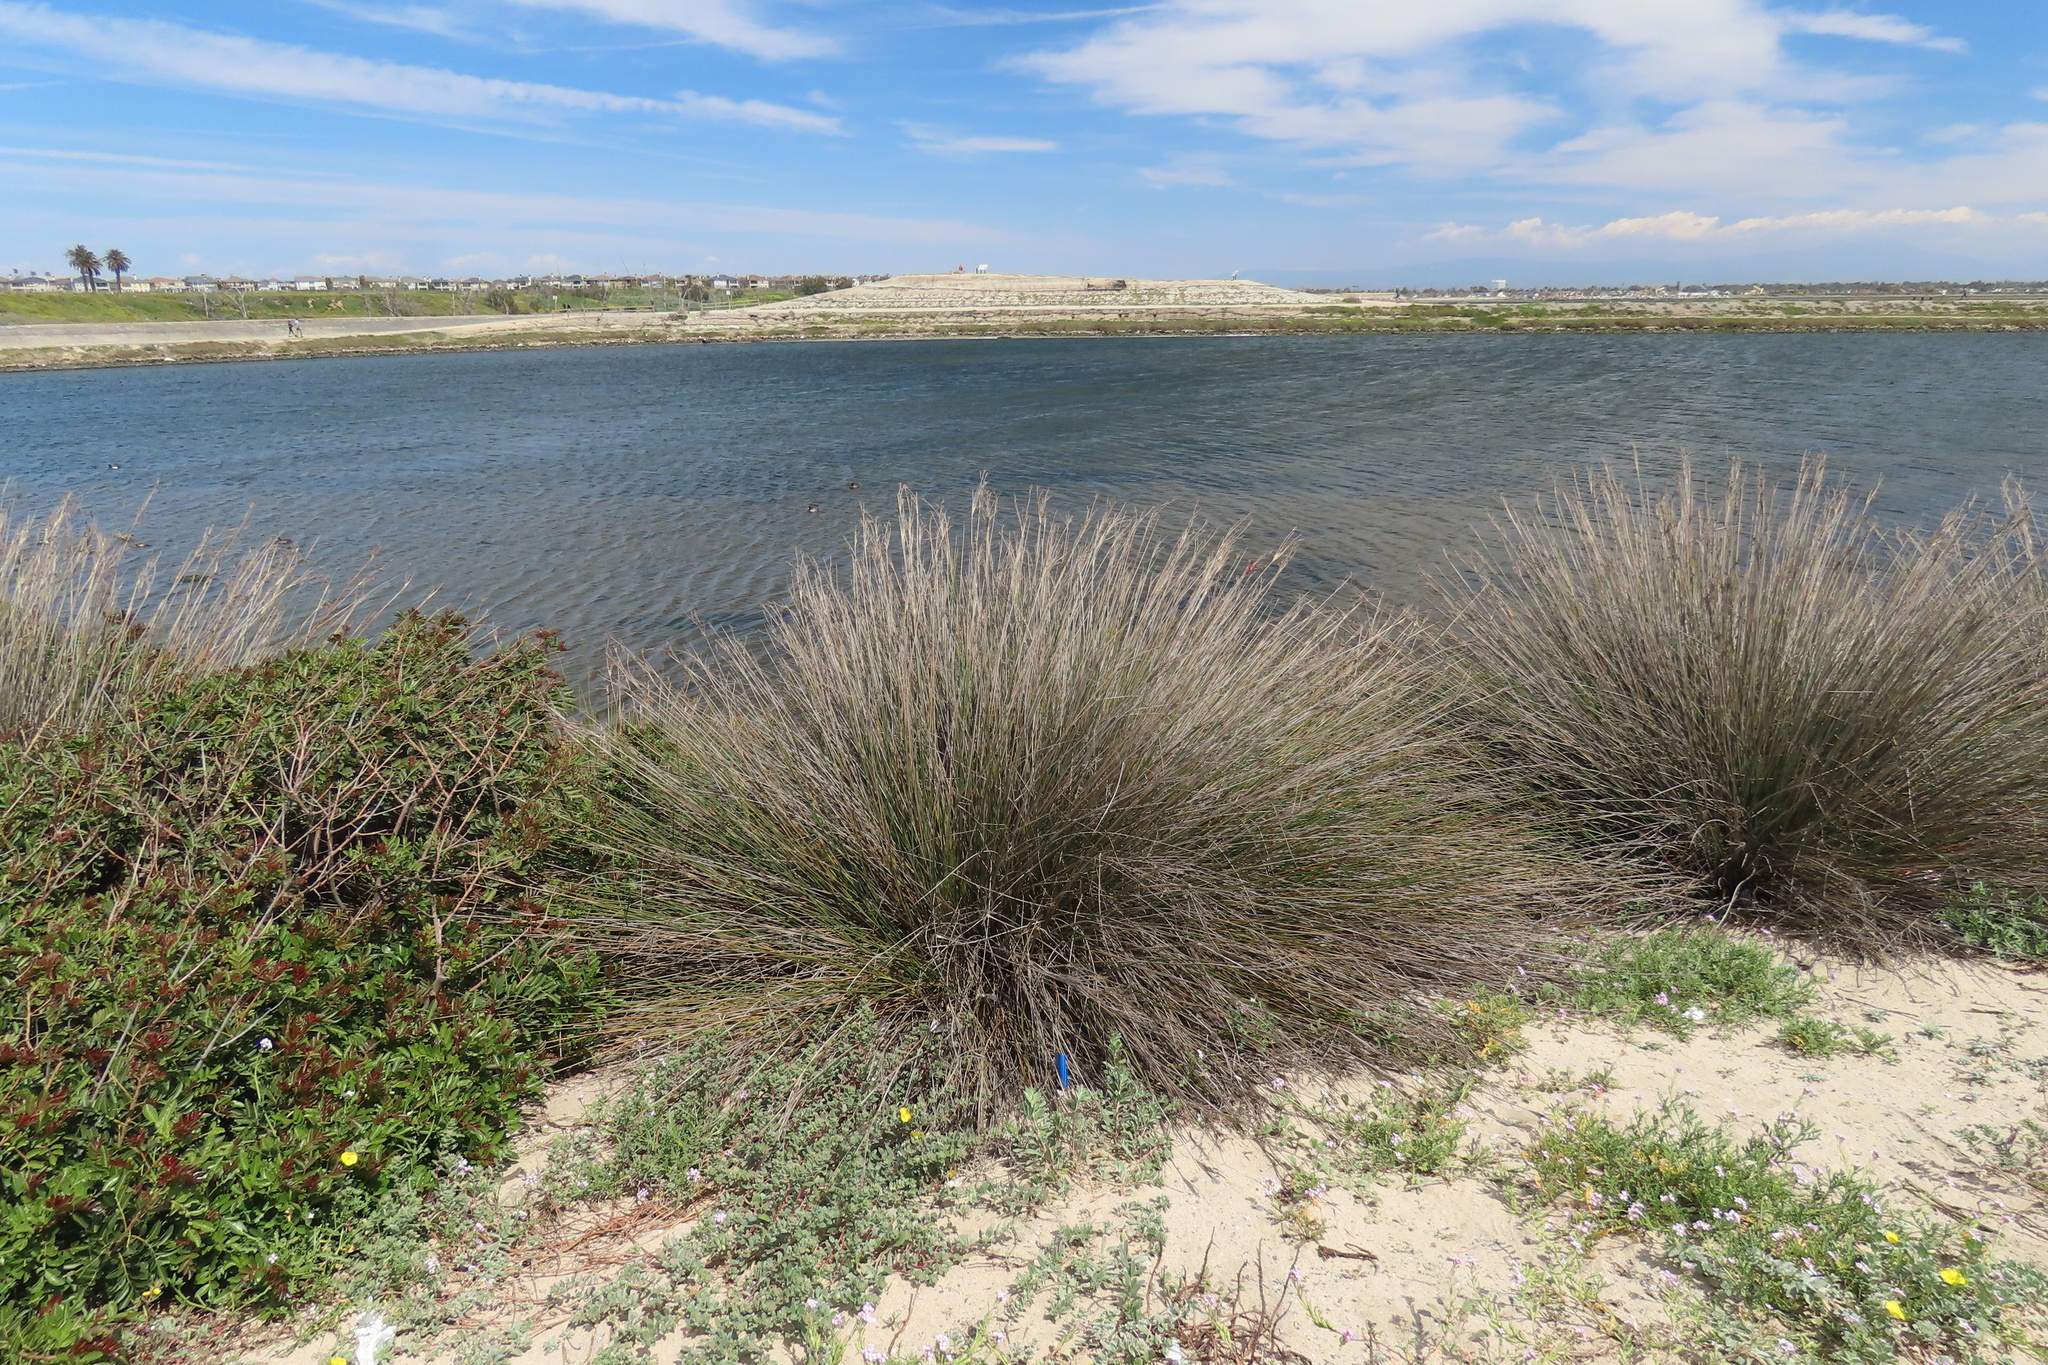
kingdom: Plantae
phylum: Tracheophyta
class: Liliopsida
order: Poales
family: Juncaceae
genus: Juncus
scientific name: Juncus acutus
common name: Sharp rush
